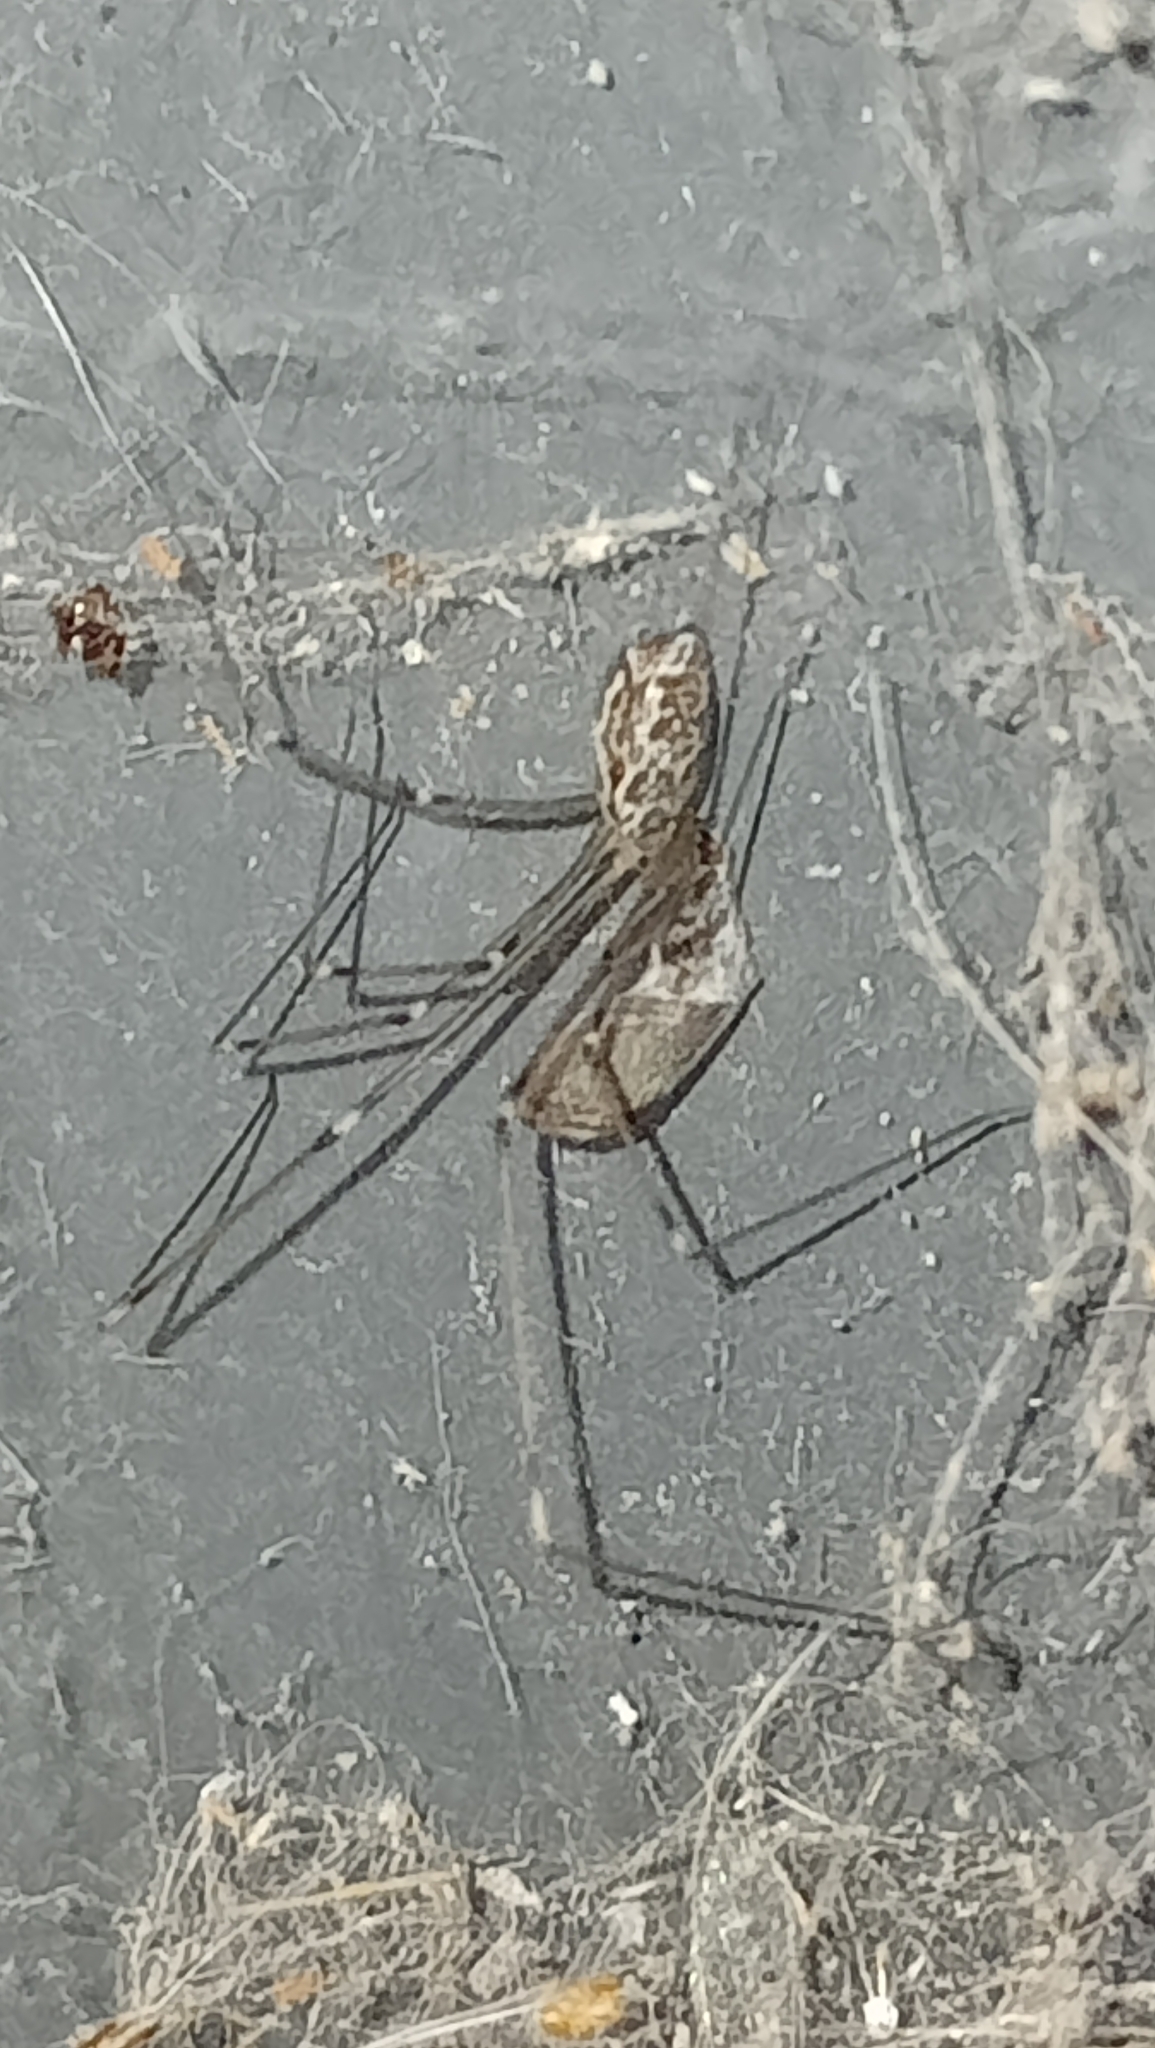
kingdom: Animalia
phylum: Arthropoda
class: Arachnida
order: Araneae
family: Pholcidae
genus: Holocnemus
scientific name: Holocnemus pluchei
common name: Marbled cellar spider
